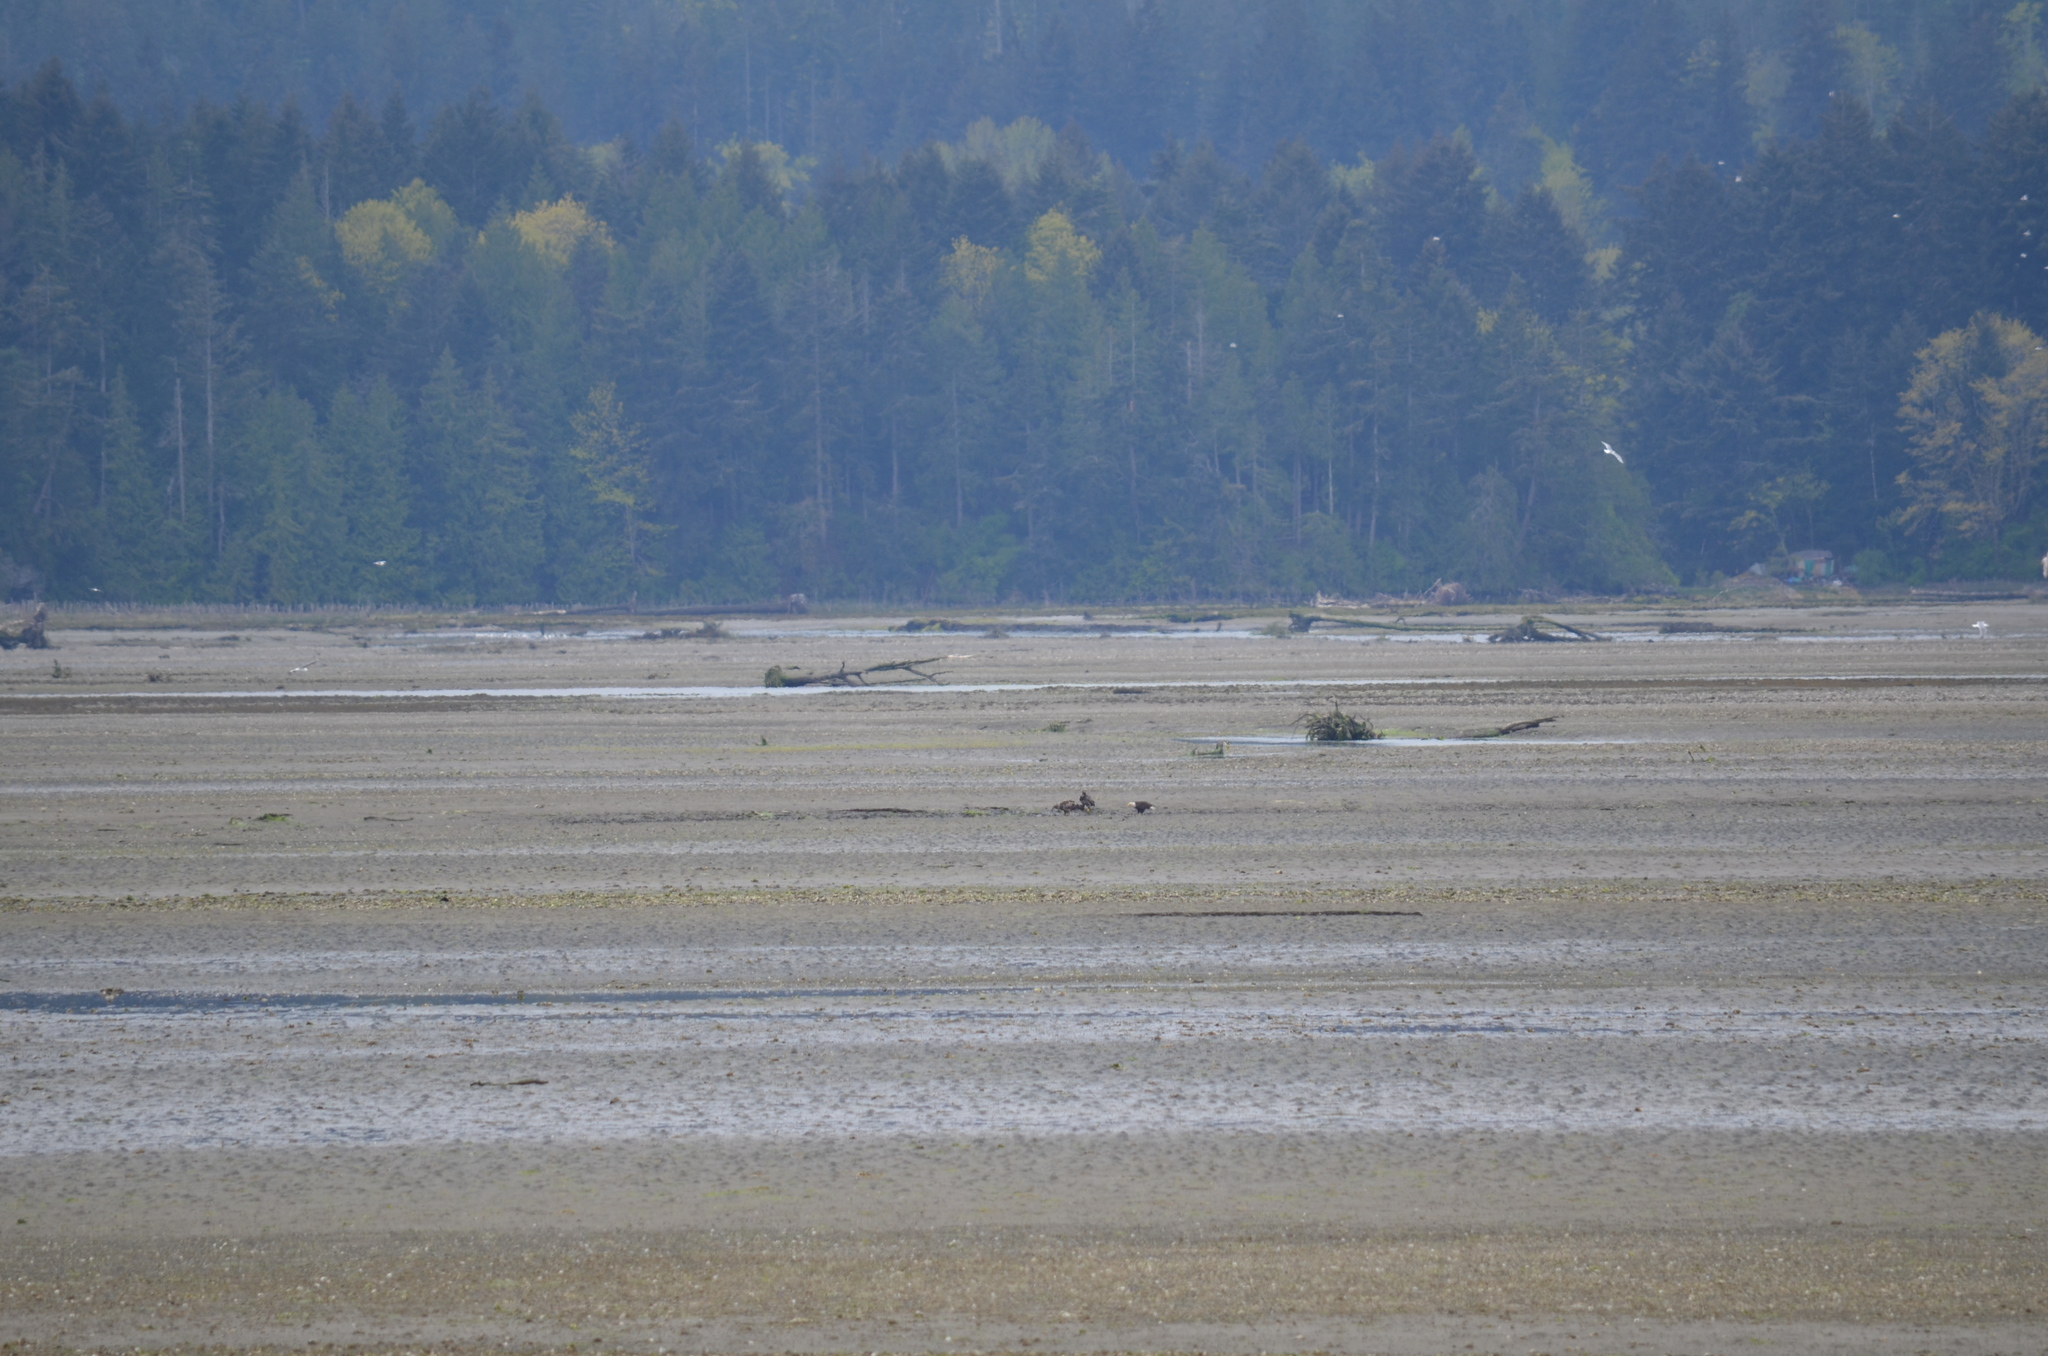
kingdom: Animalia
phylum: Chordata
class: Aves
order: Accipitriformes
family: Accipitridae
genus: Haliaeetus
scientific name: Haliaeetus leucocephalus
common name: Bald eagle
